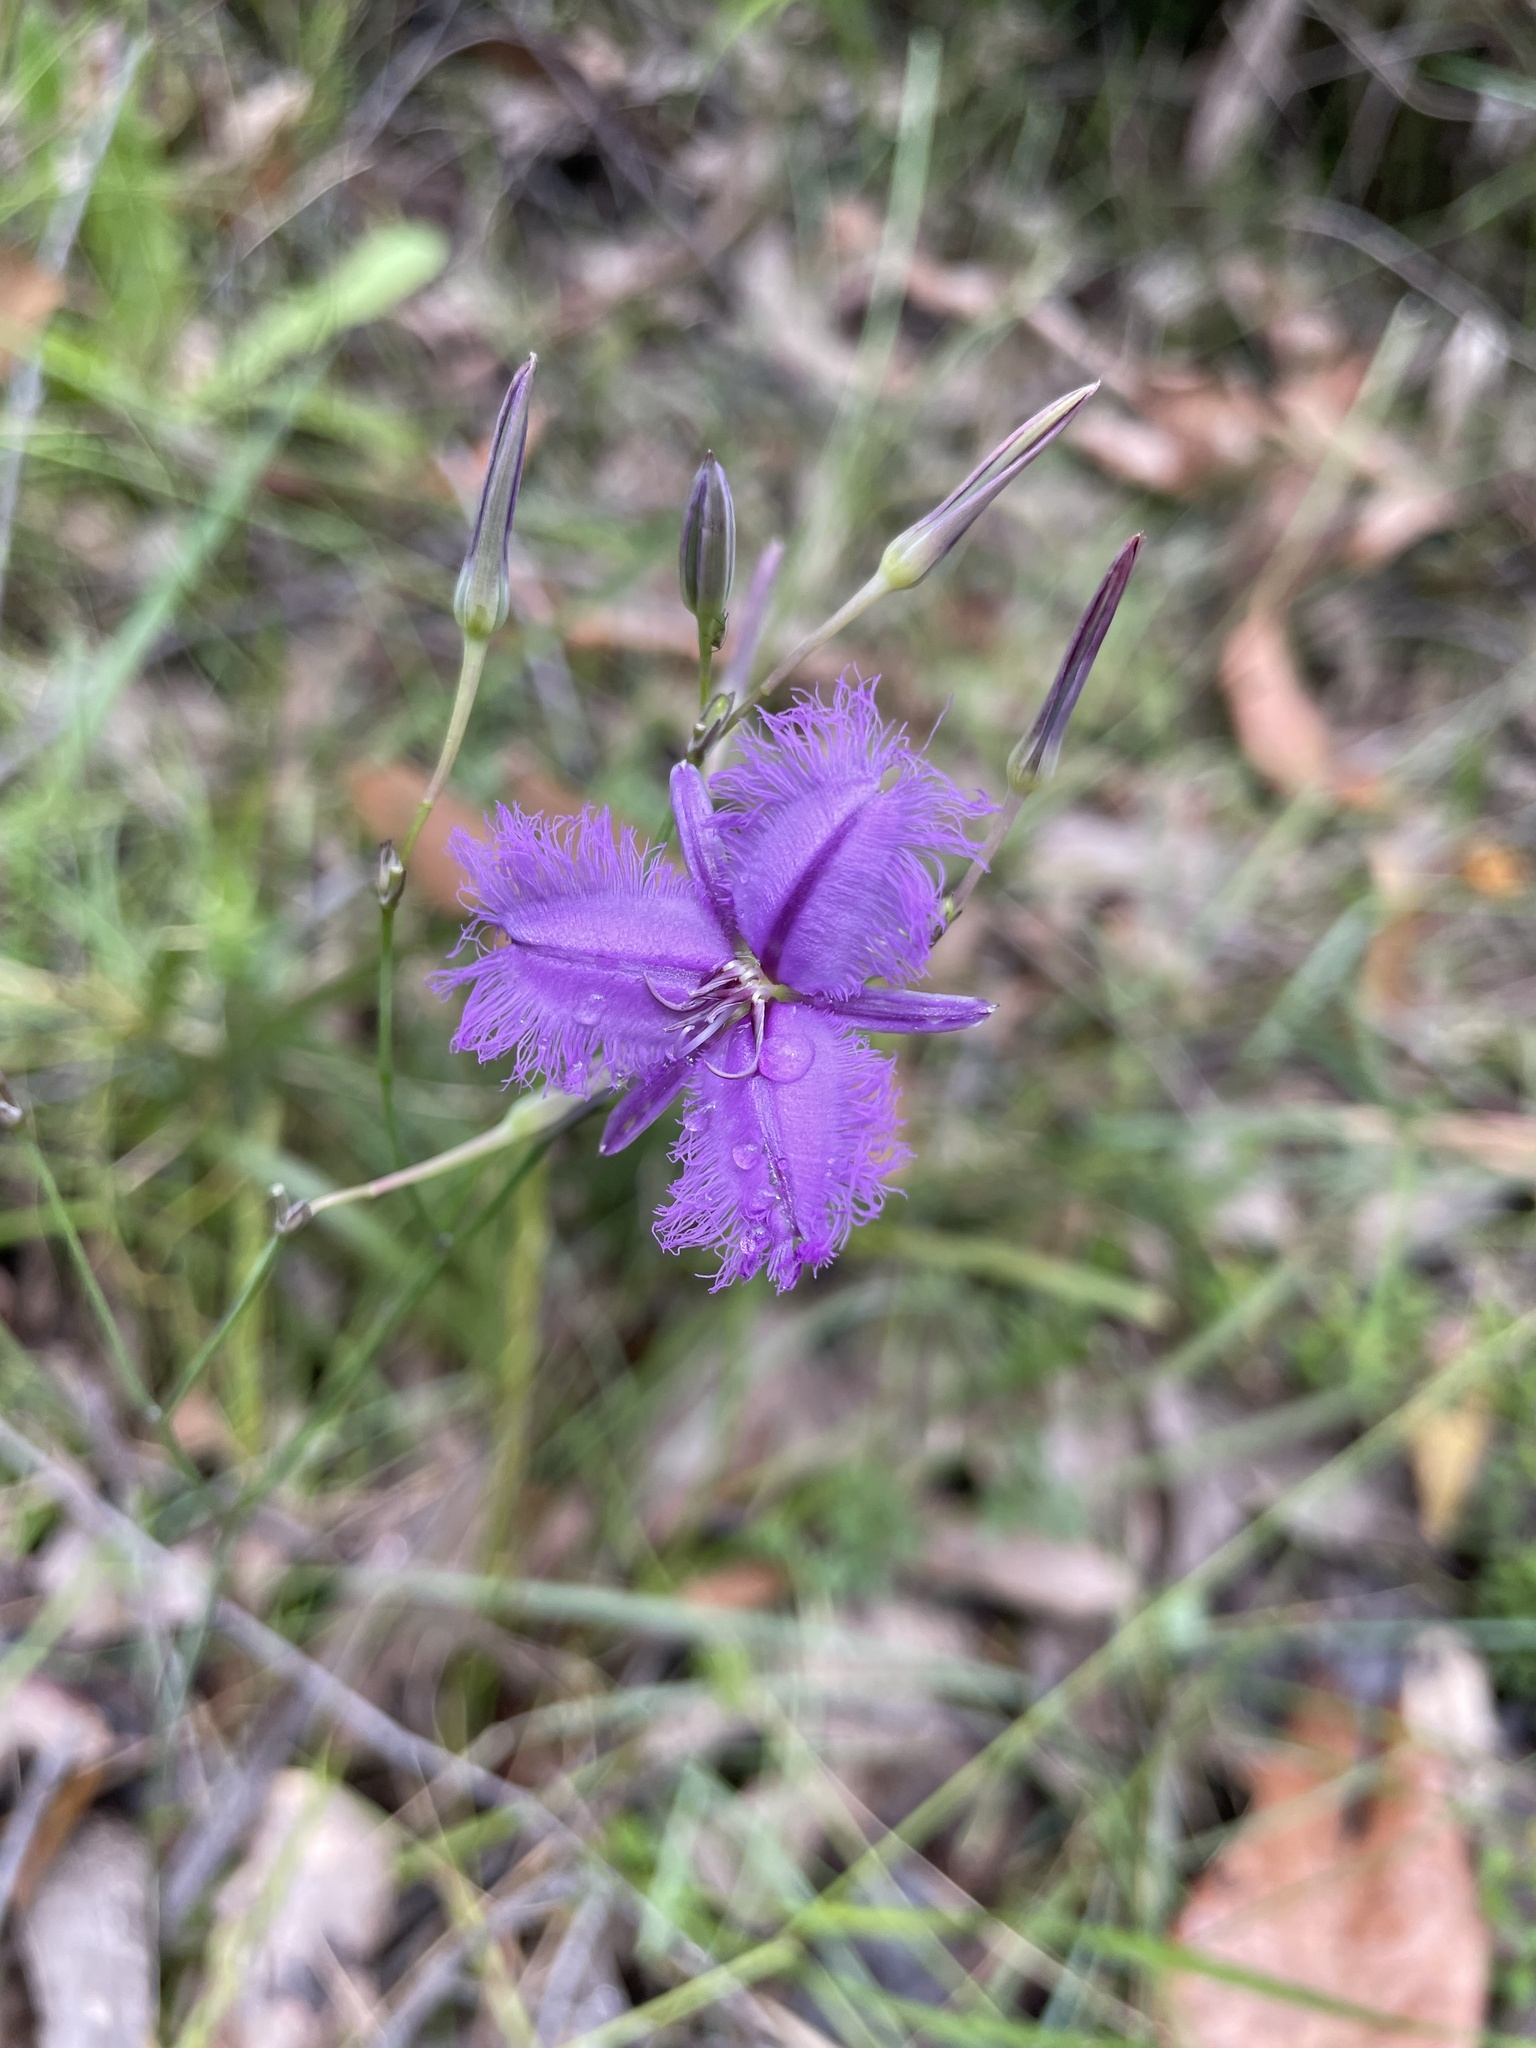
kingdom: Plantae
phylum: Tracheophyta
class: Liliopsida
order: Asparagales
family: Asparagaceae
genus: Thysanotus
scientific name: Thysanotus tuberosus
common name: Common fringed-lily
